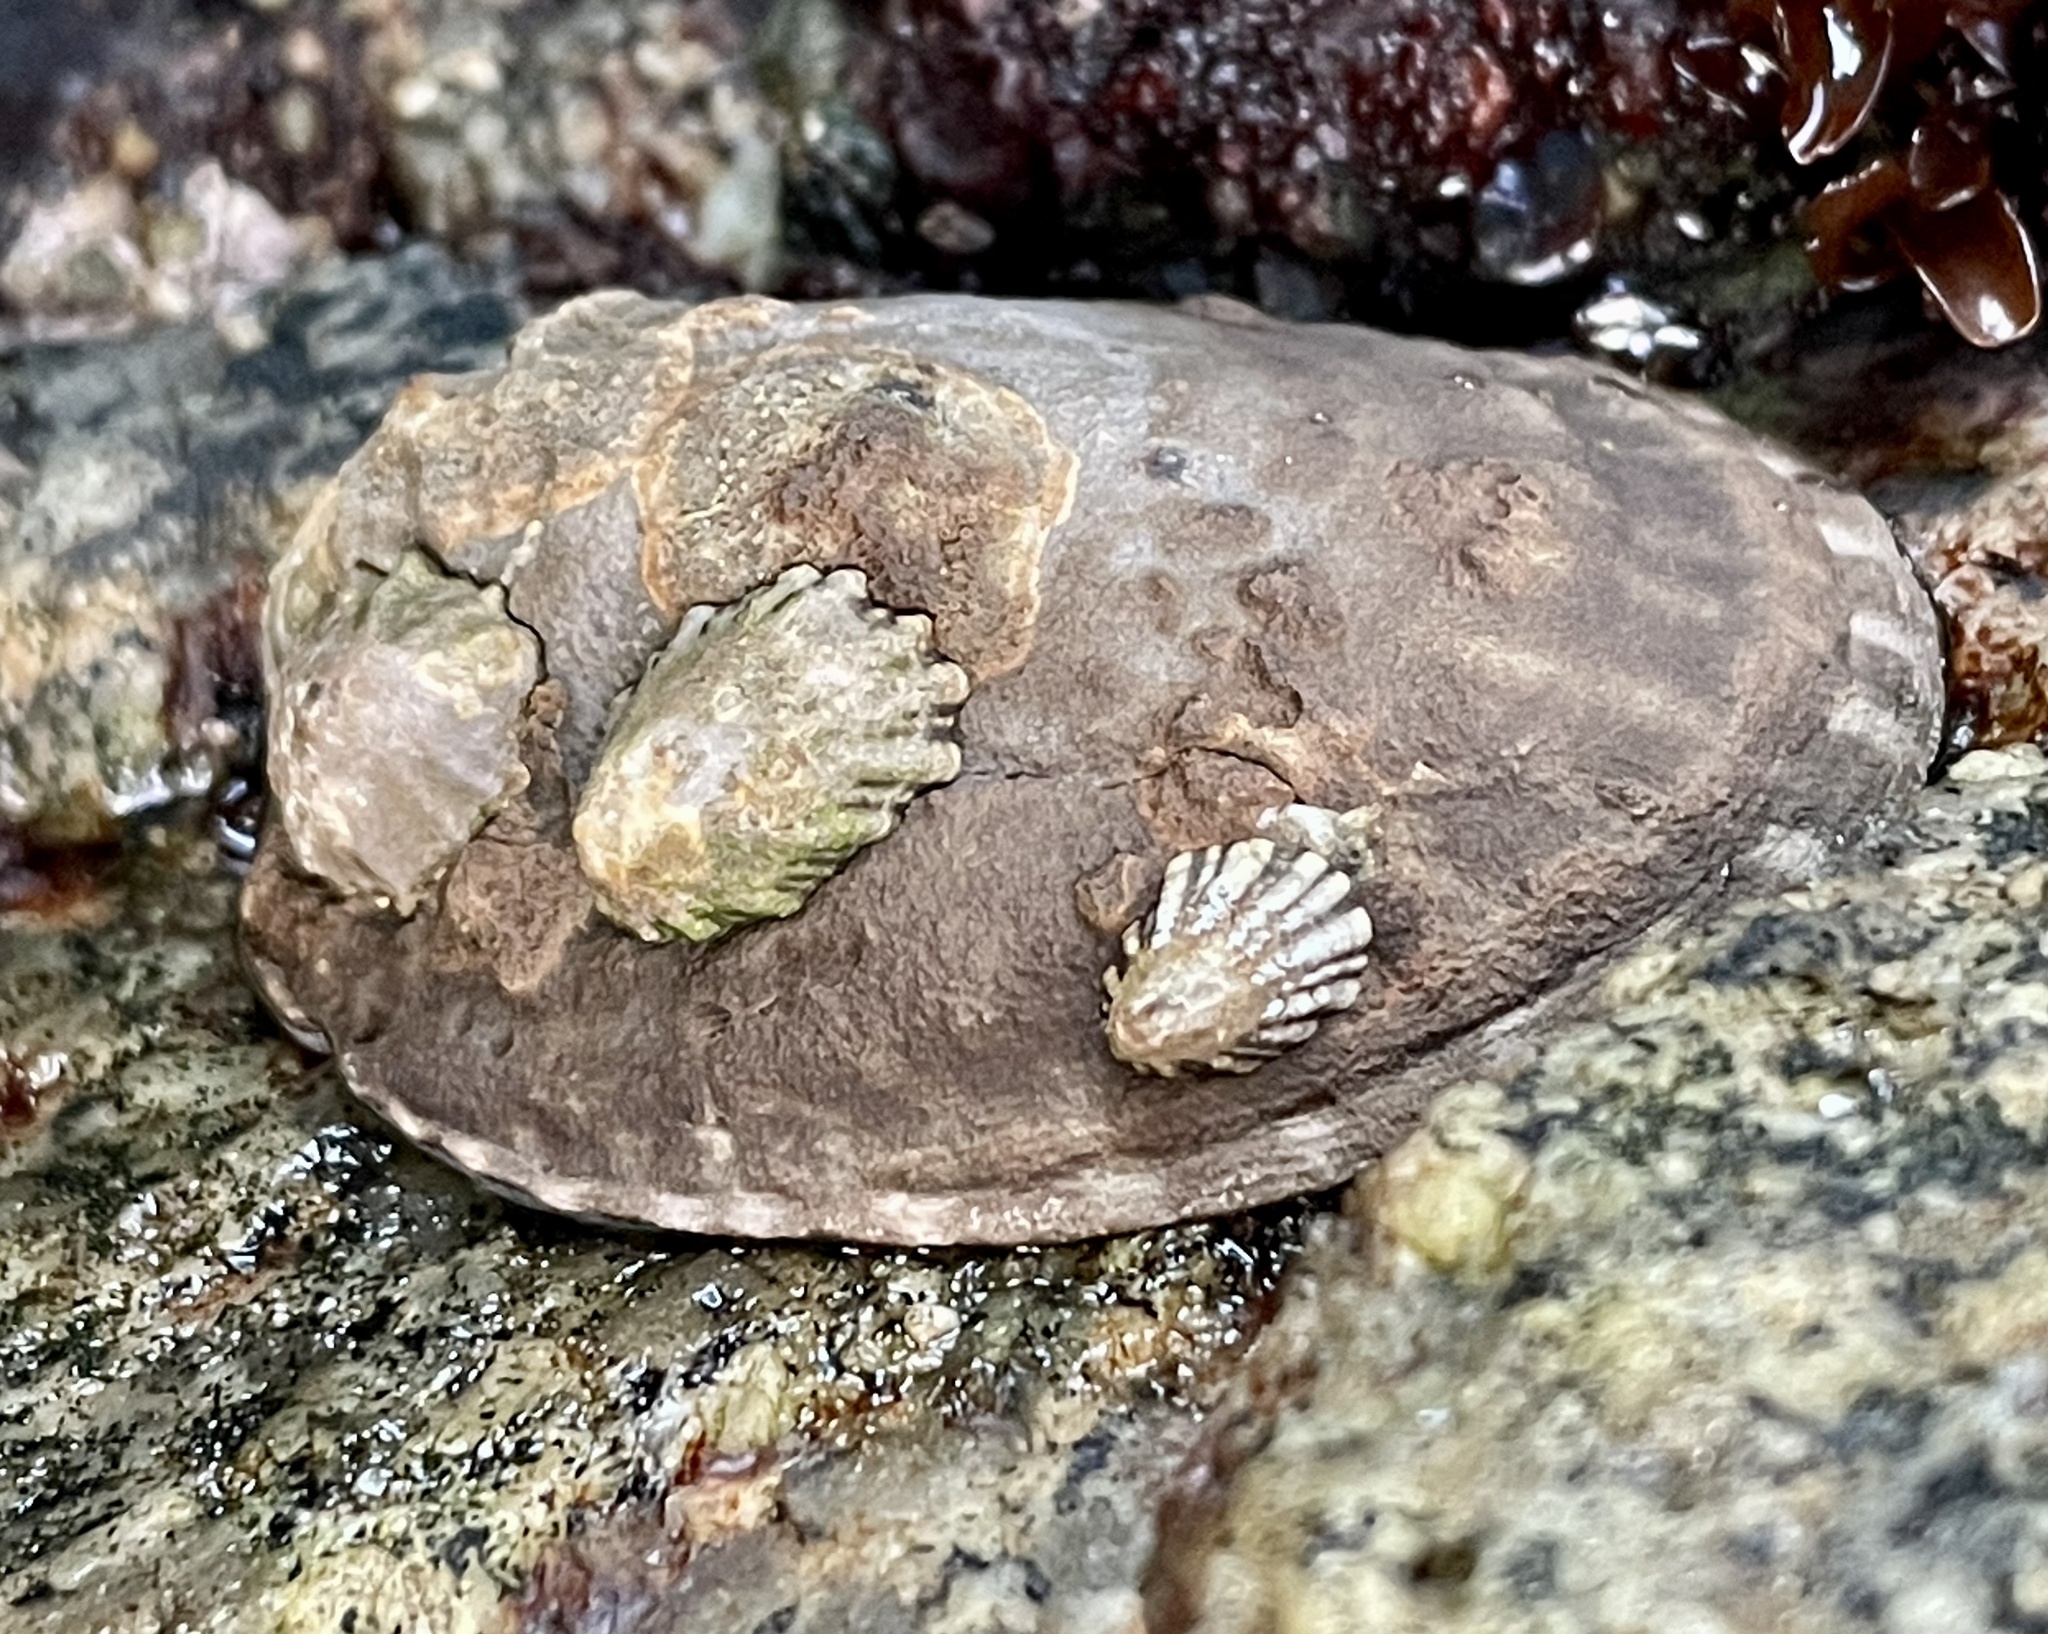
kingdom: Animalia
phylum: Mollusca
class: Gastropoda
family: Lottiidae
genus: Lottia
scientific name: Lottia gigantea
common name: Owl limpet
